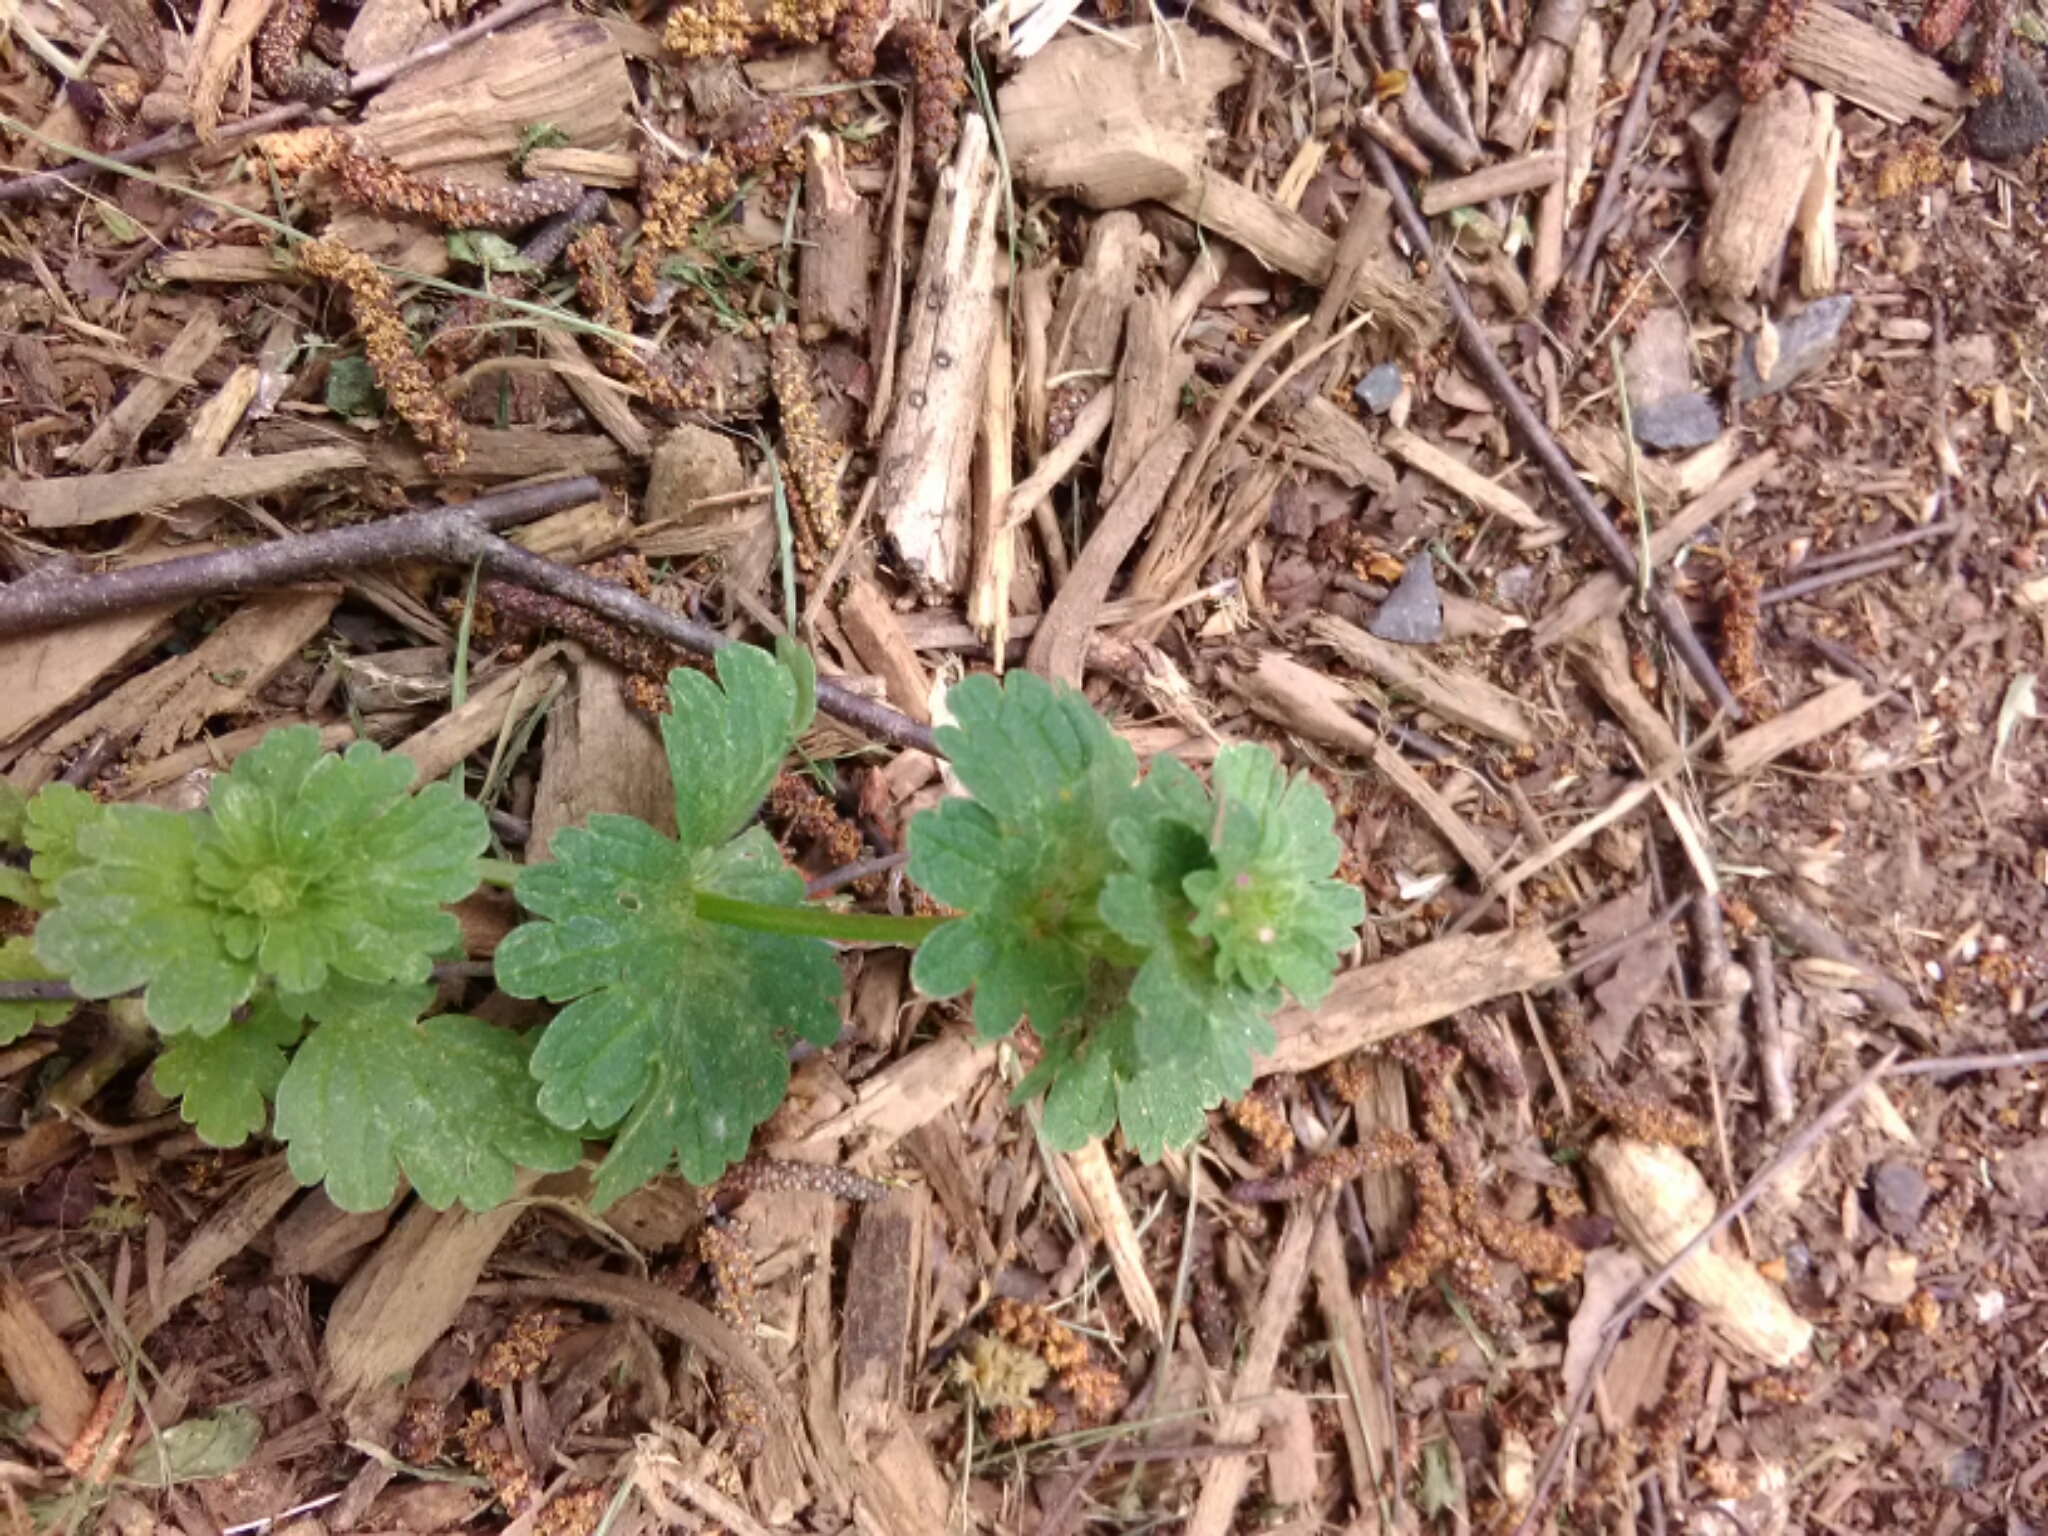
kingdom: Plantae
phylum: Tracheophyta
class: Magnoliopsida
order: Lamiales
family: Lamiaceae
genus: Lamium
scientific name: Lamium amplexicaule
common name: Henbit dead-nettle
